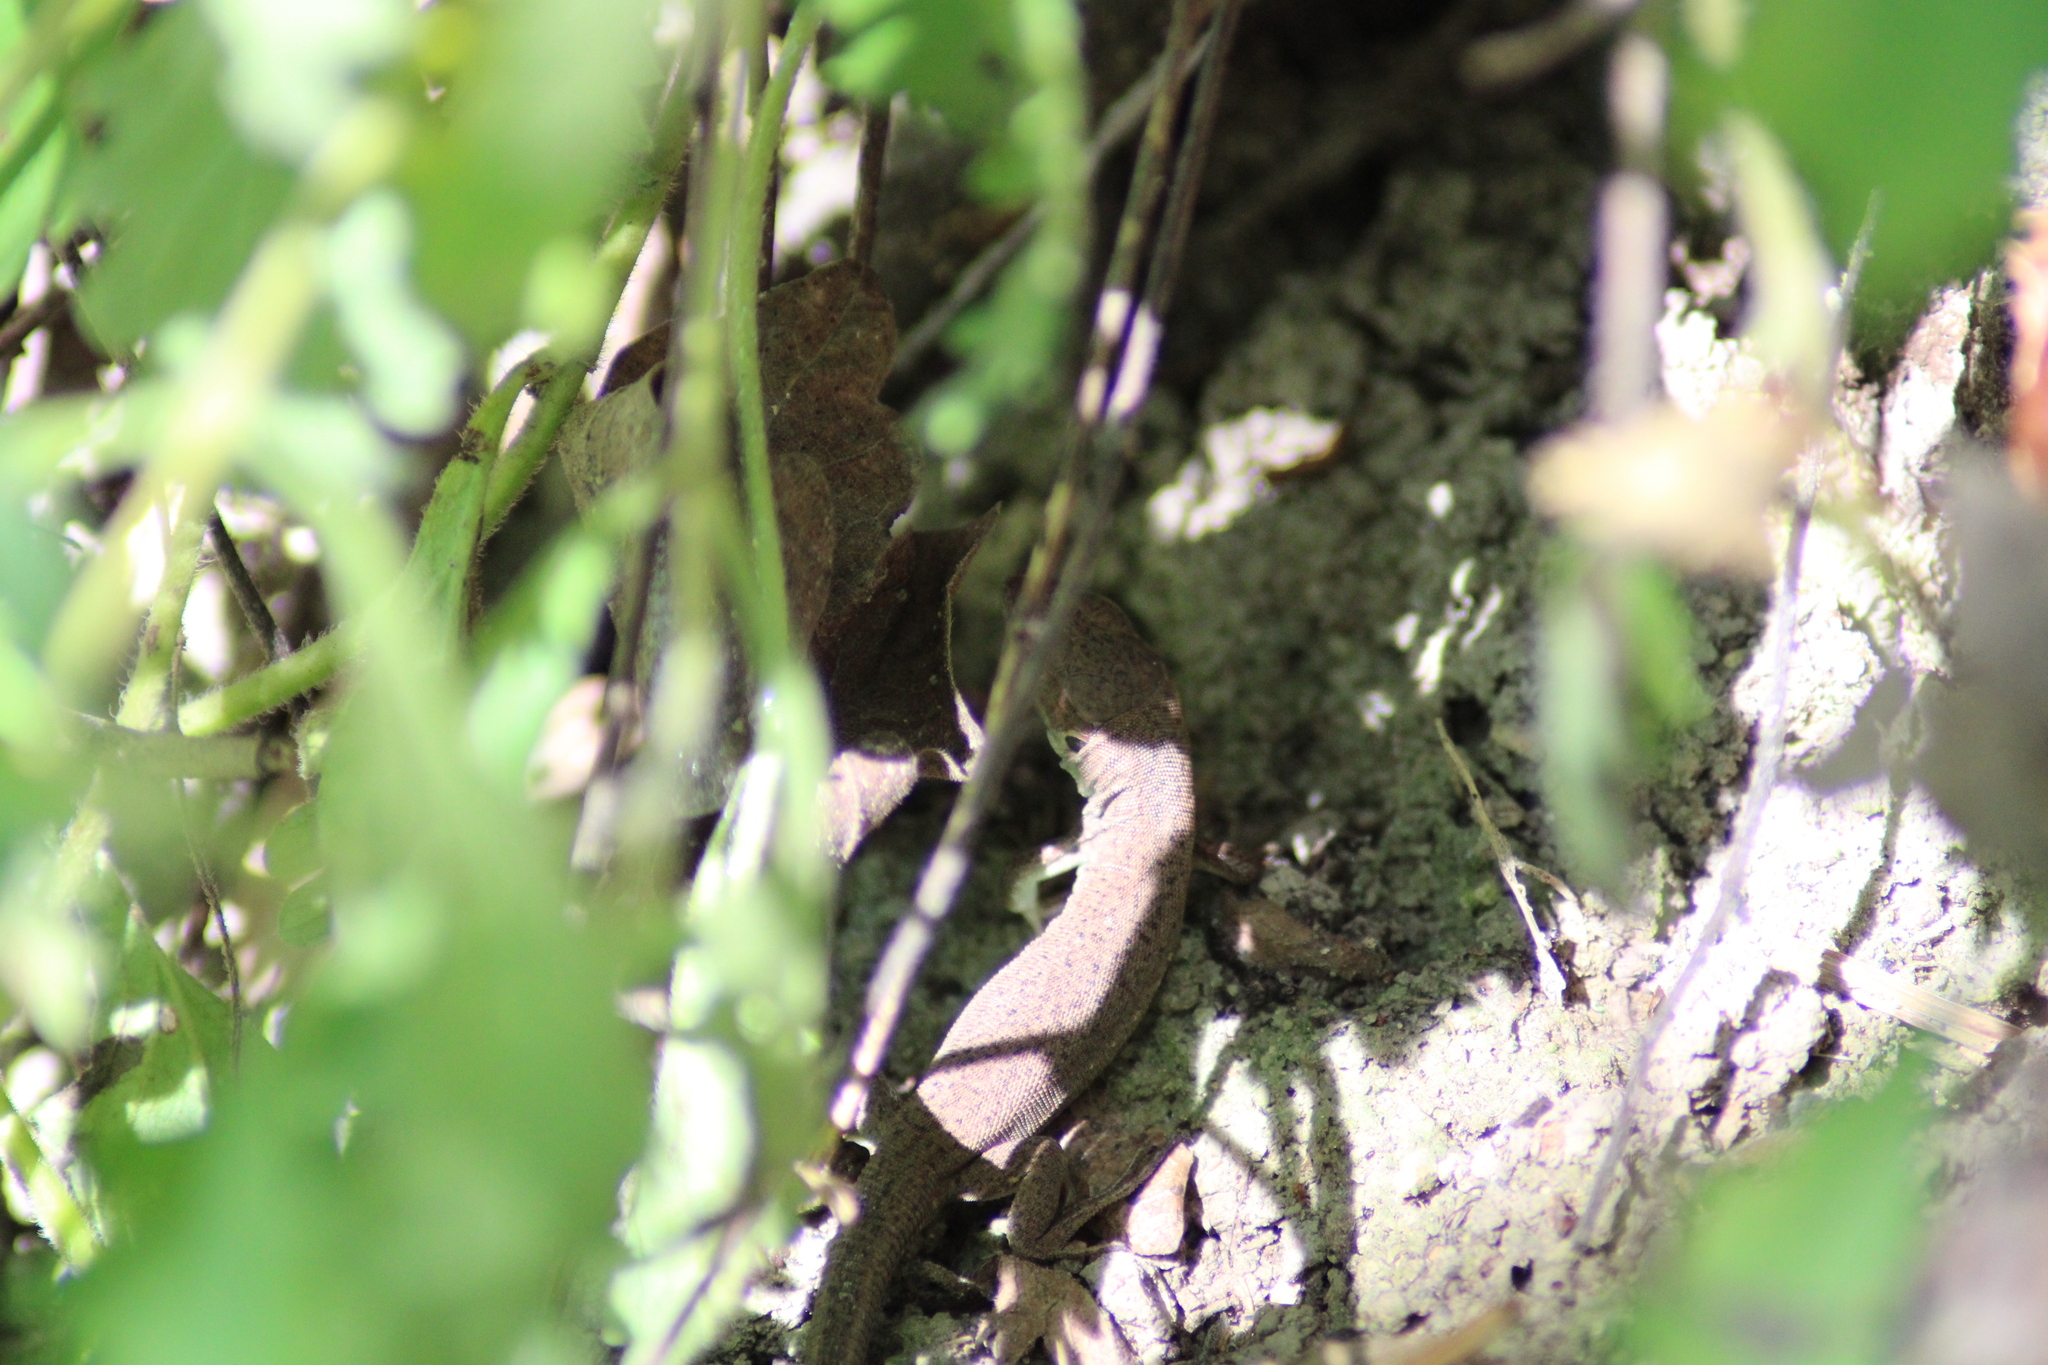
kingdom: Animalia
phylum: Chordata
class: Squamata
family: Lacertidae
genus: Lacerta
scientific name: Lacerta viridis
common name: European green lizard
